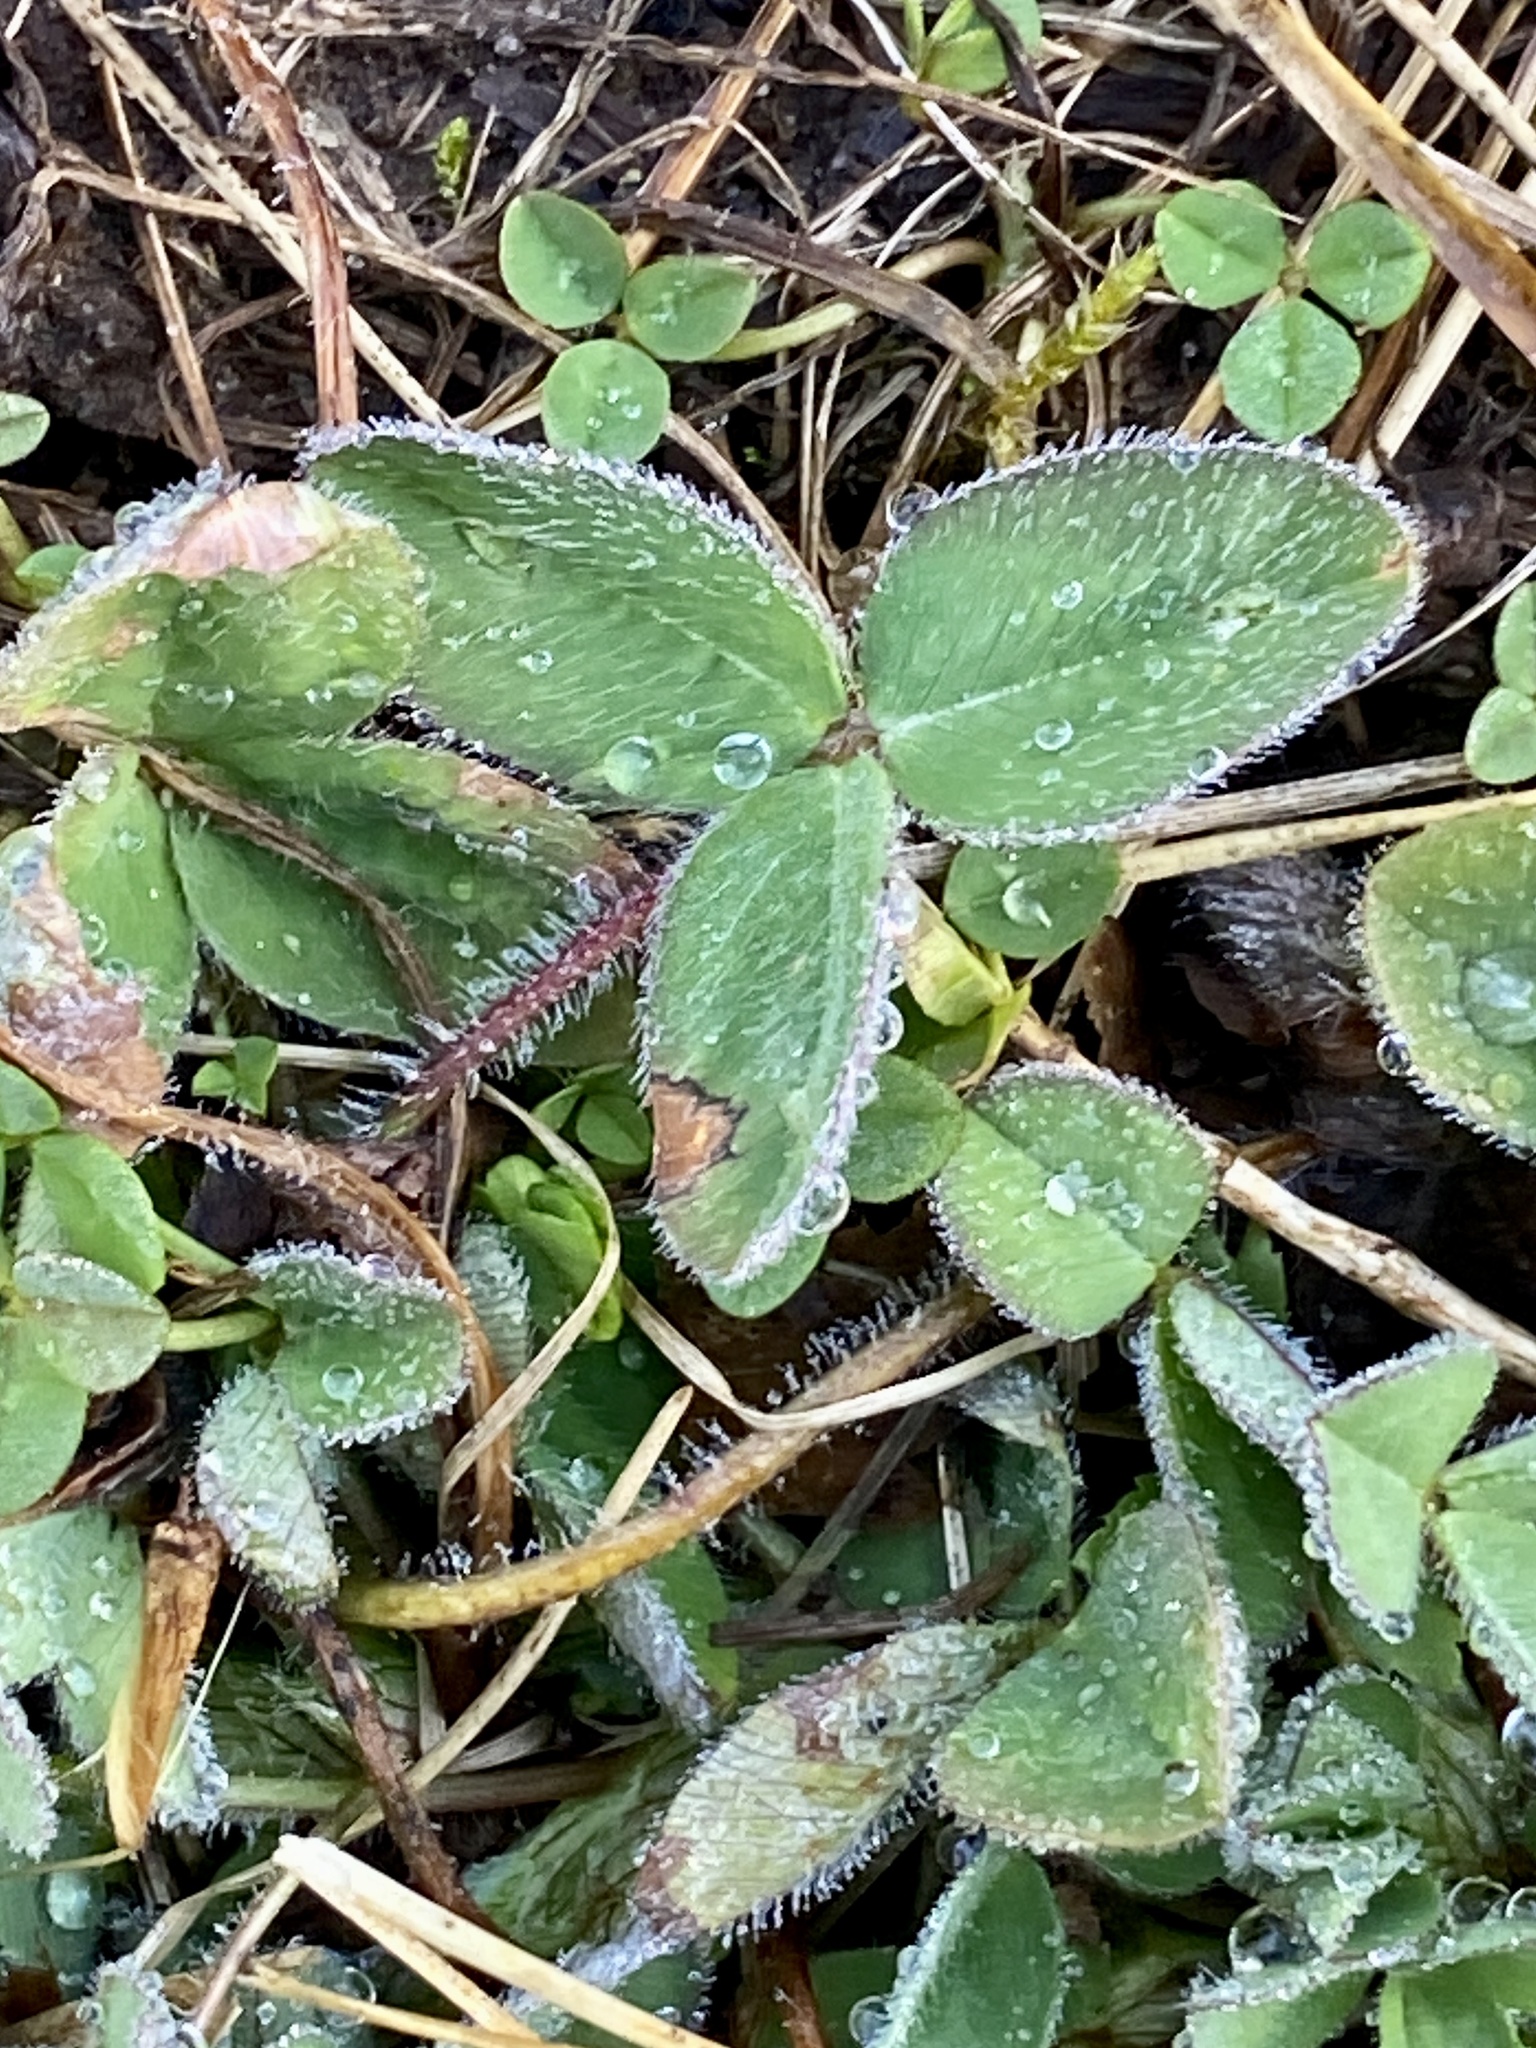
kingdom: Plantae
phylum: Tracheophyta
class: Magnoliopsida
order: Fabales
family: Fabaceae
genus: Trifolium
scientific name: Trifolium pratense
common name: Red clover
